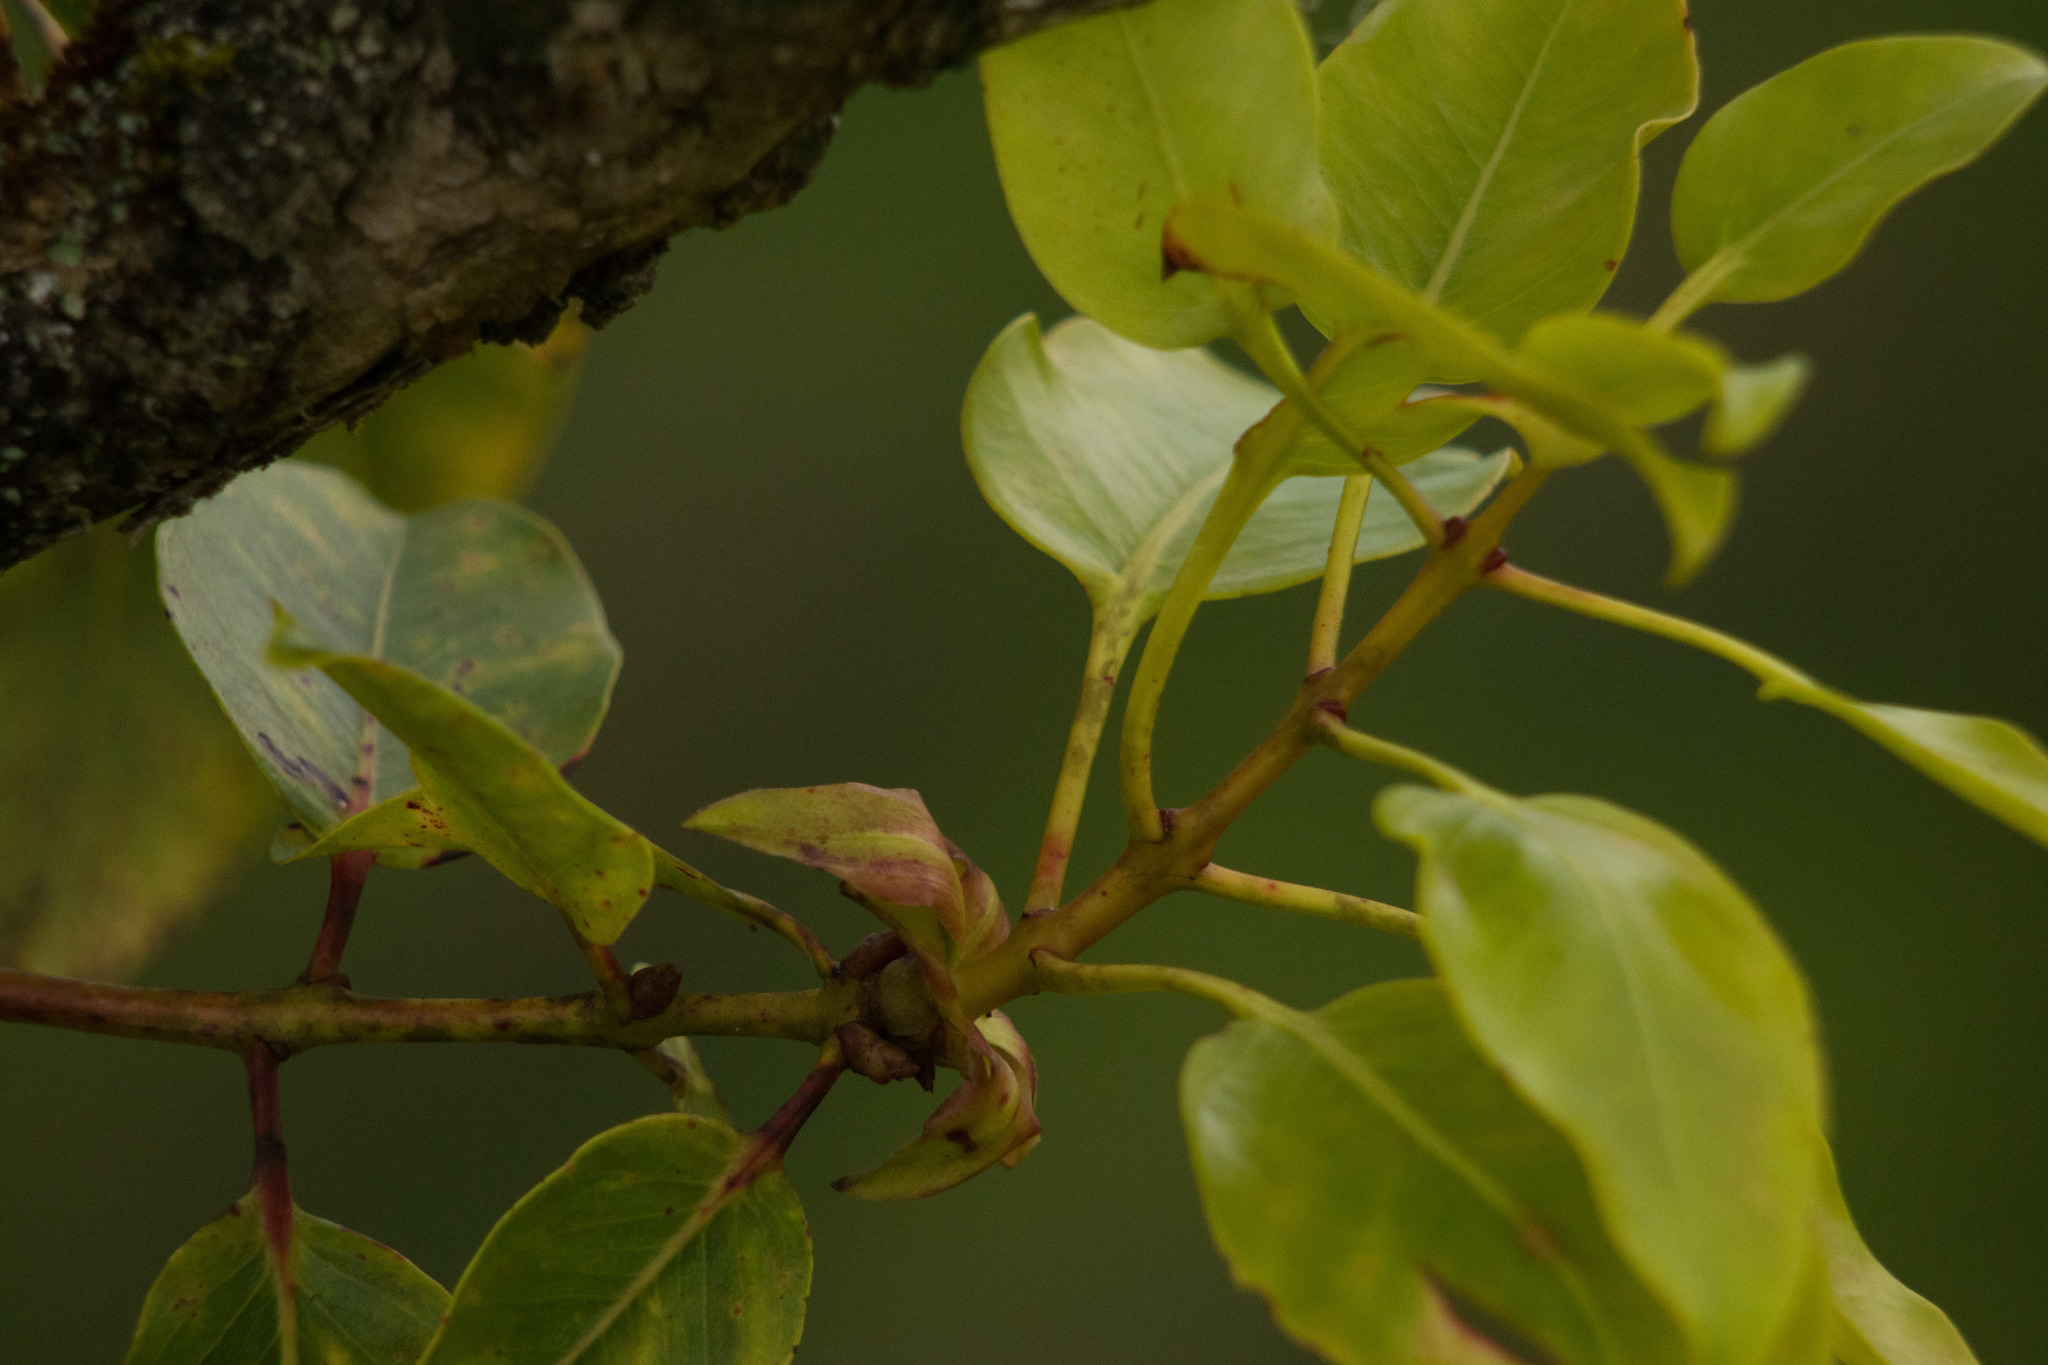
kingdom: Plantae
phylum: Tracheophyta
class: Magnoliopsida
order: Myrtales
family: Myrtaceae
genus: Metrosideros
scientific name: Metrosideros macropus
